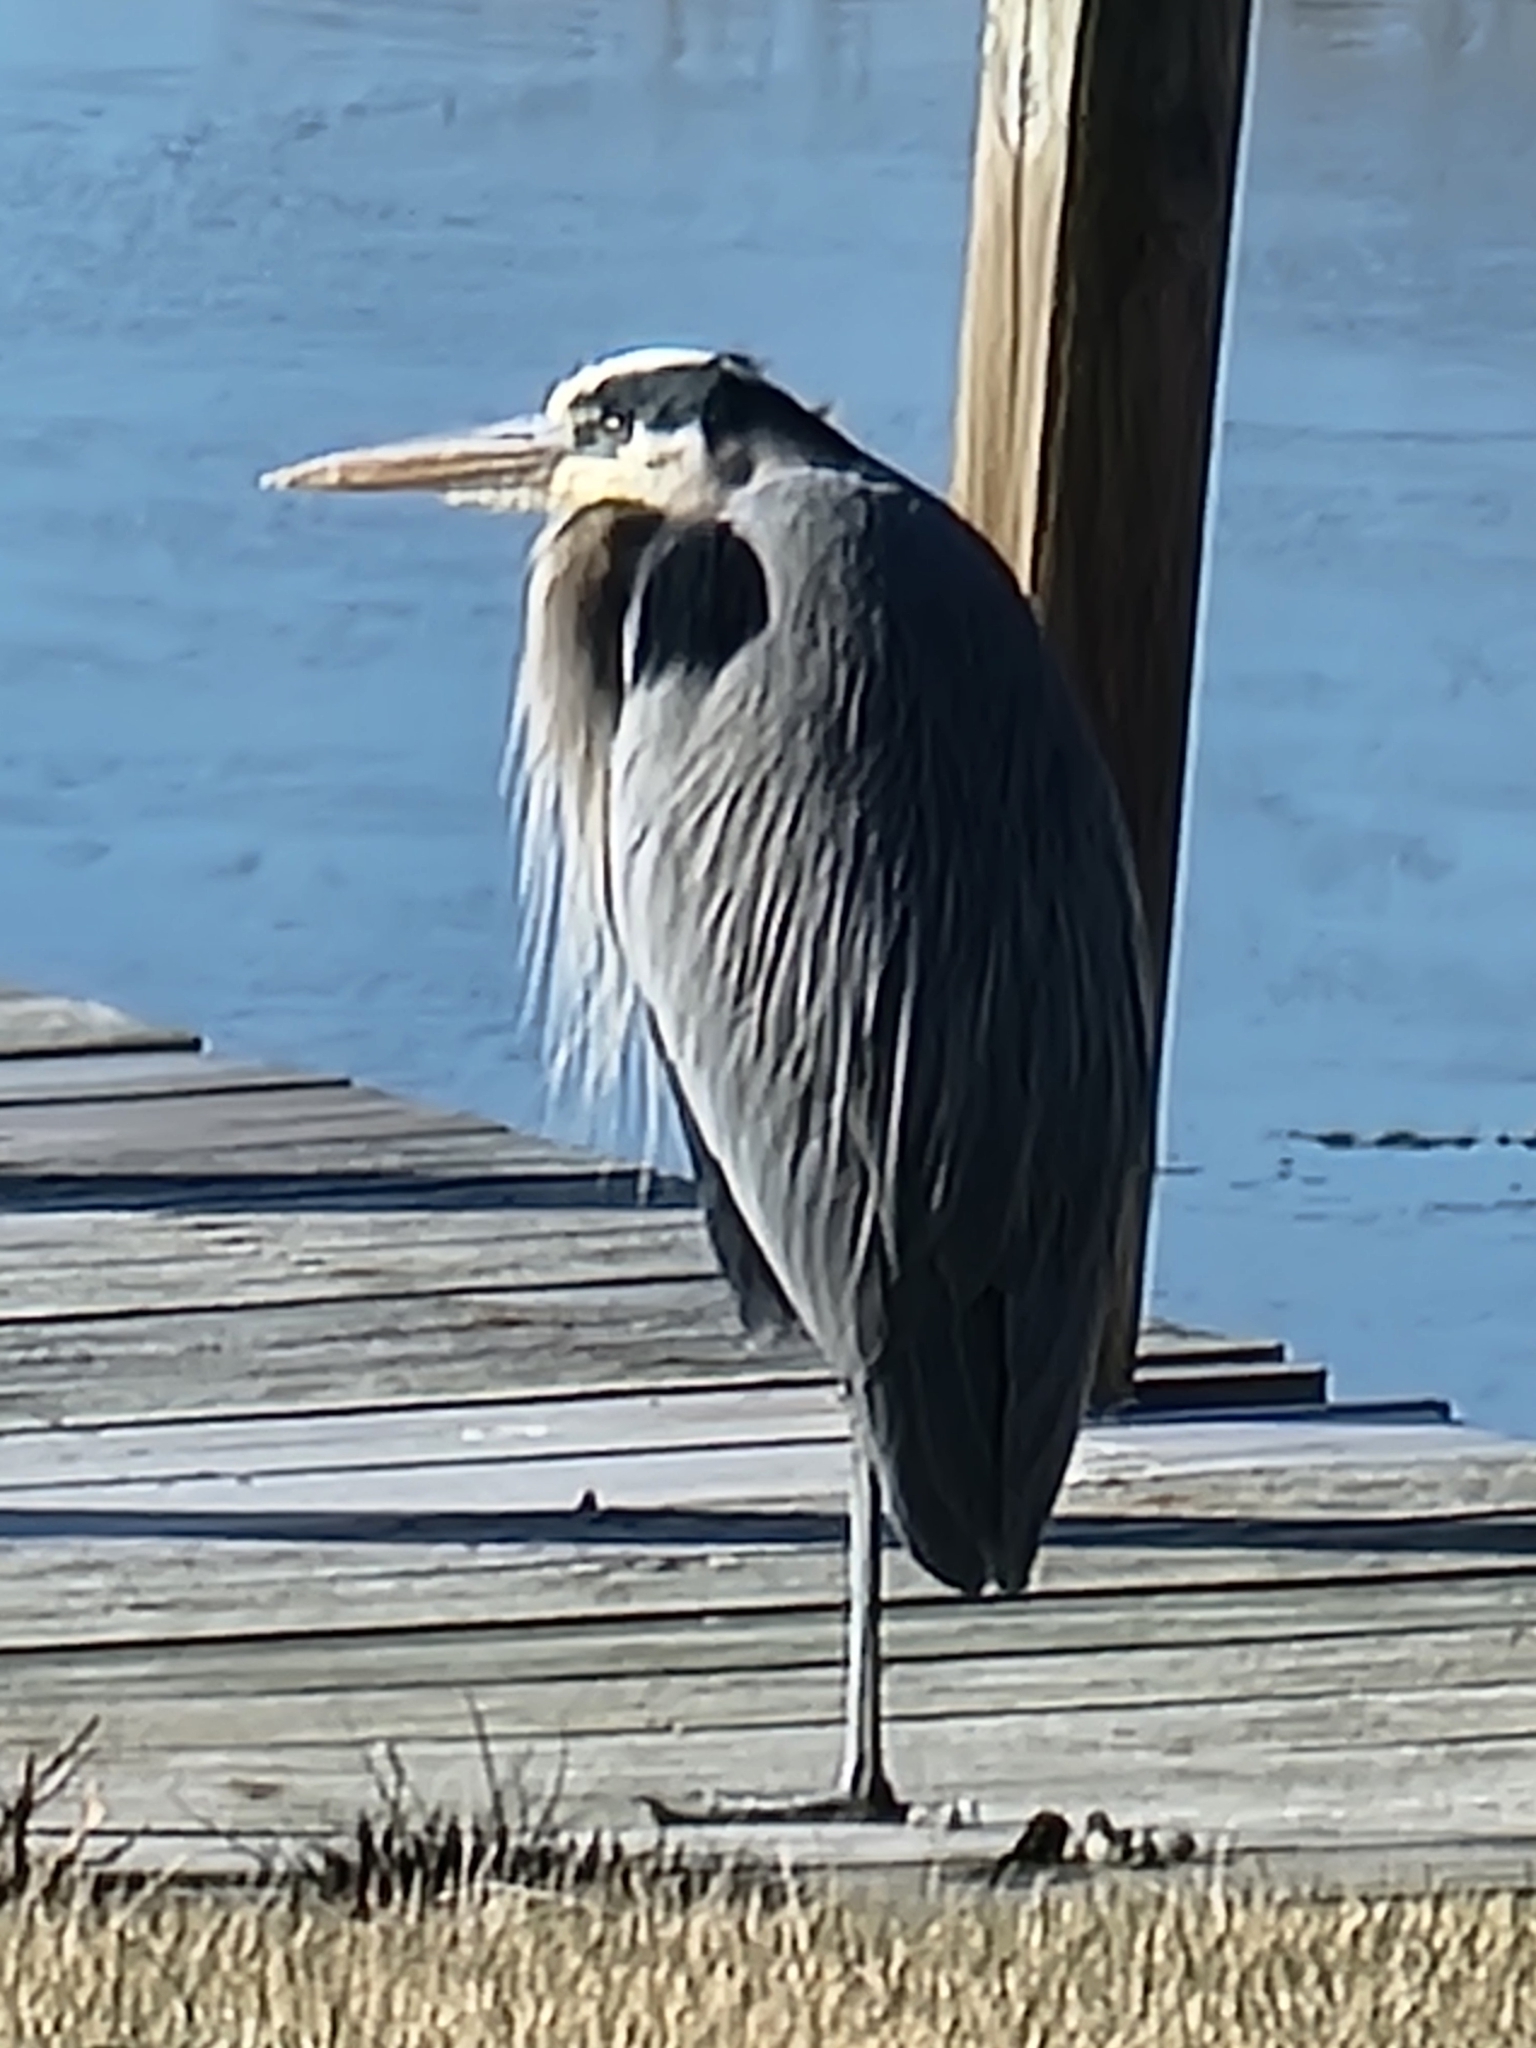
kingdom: Animalia
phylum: Chordata
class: Aves
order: Pelecaniformes
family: Ardeidae
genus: Ardea
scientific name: Ardea herodias
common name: Great blue heron
